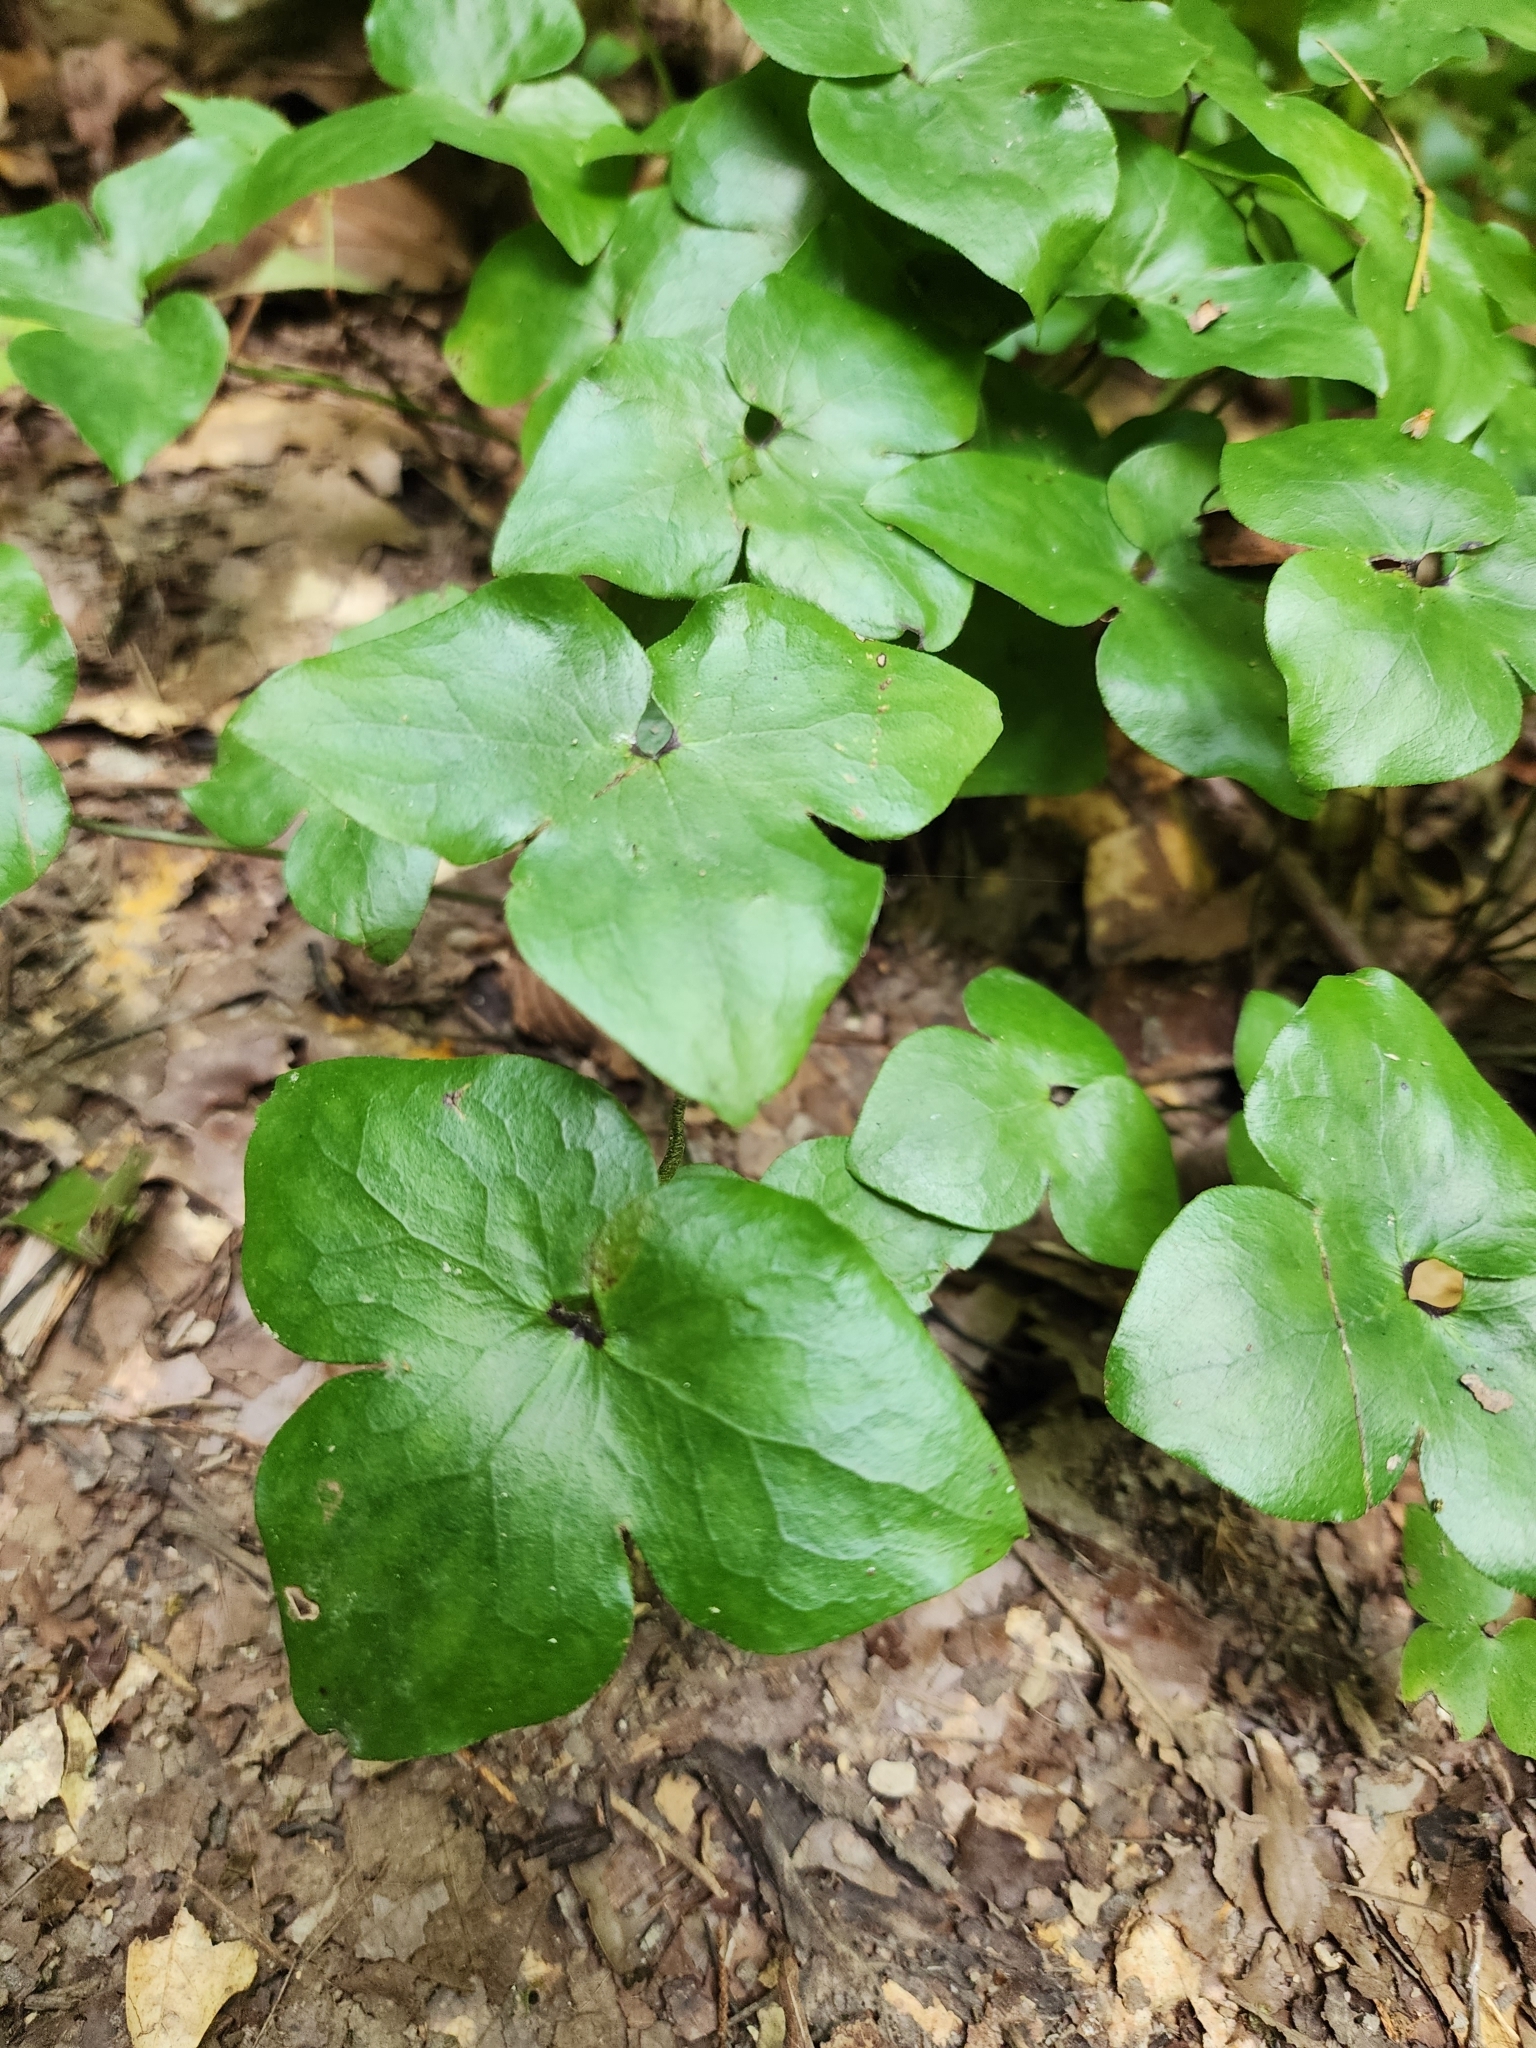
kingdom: Plantae
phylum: Tracheophyta
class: Magnoliopsida
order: Ranunculales
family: Ranunculaceae
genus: Hepatica
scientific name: Hepatica acutiloba
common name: Sharp-lobed hepatica
